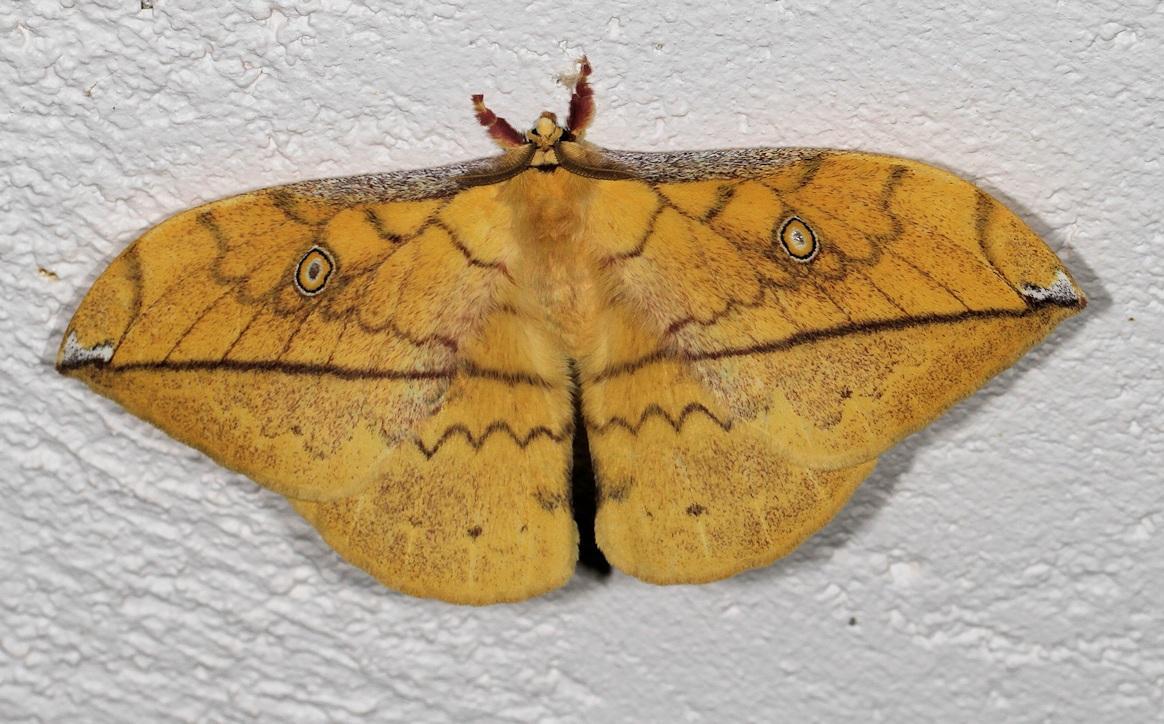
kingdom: Animalia
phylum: Arthropoda
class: Insecta
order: Lepidoptera
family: Saturniidae
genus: Pselaphelia
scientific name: Pselaphelia flavivitta
